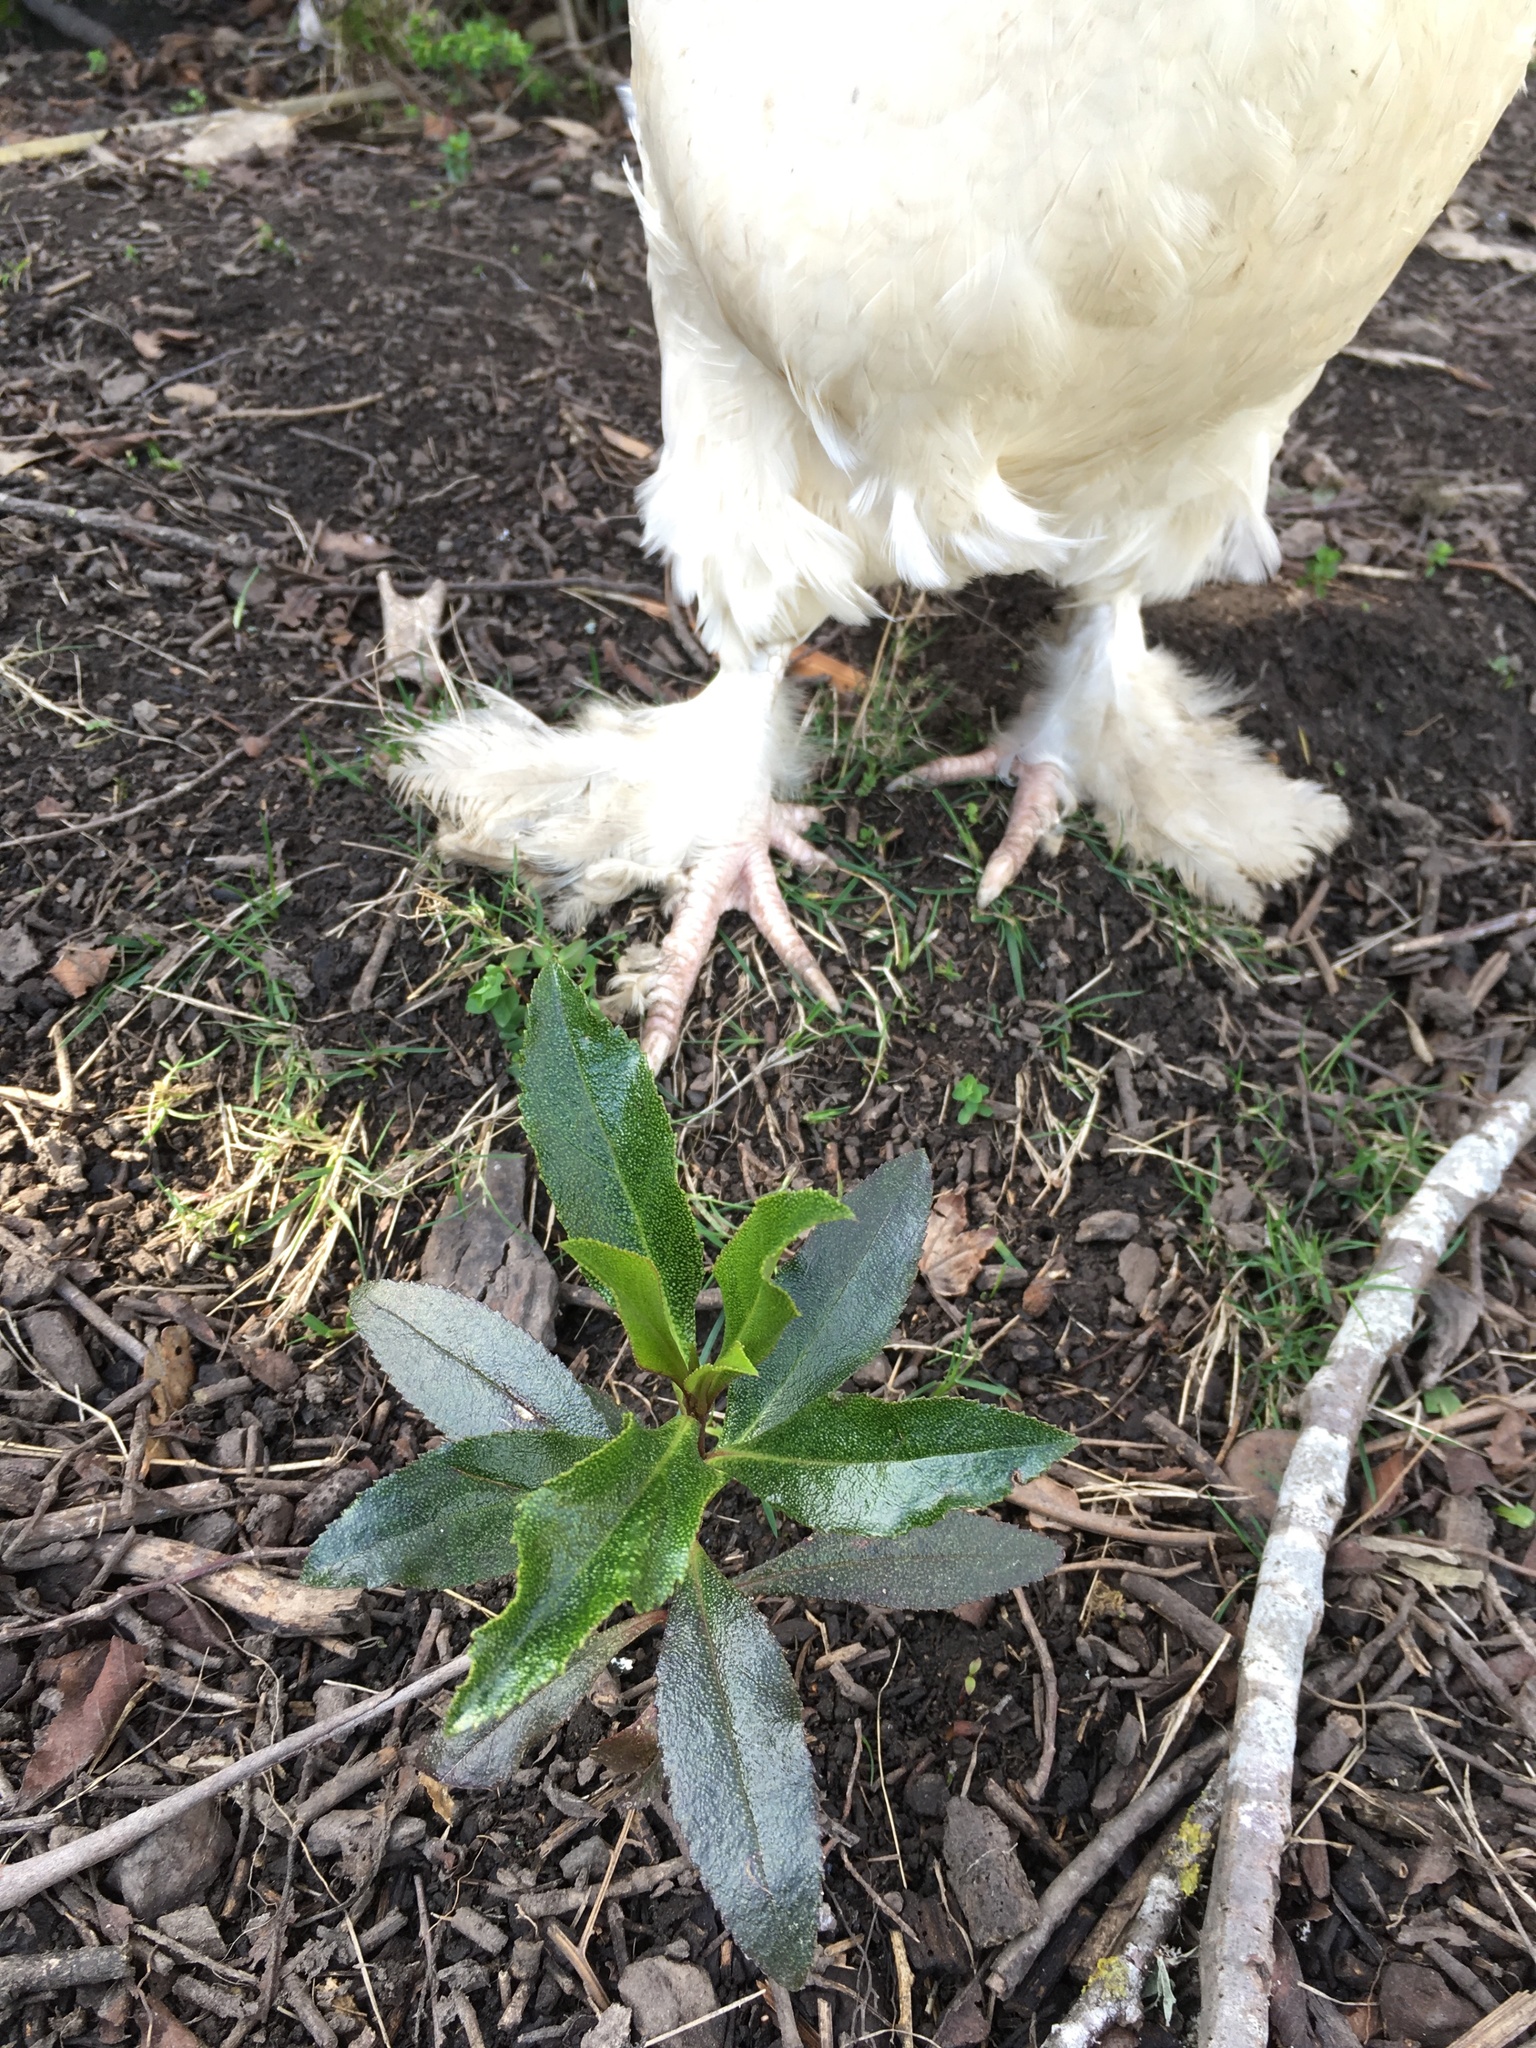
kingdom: Plantae
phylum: Tracheophyta
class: Magnoliopsida
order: Lamiales
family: Scrophulariaceae
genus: Myoporum
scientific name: Myoporum laetum
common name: Ngaio tree
